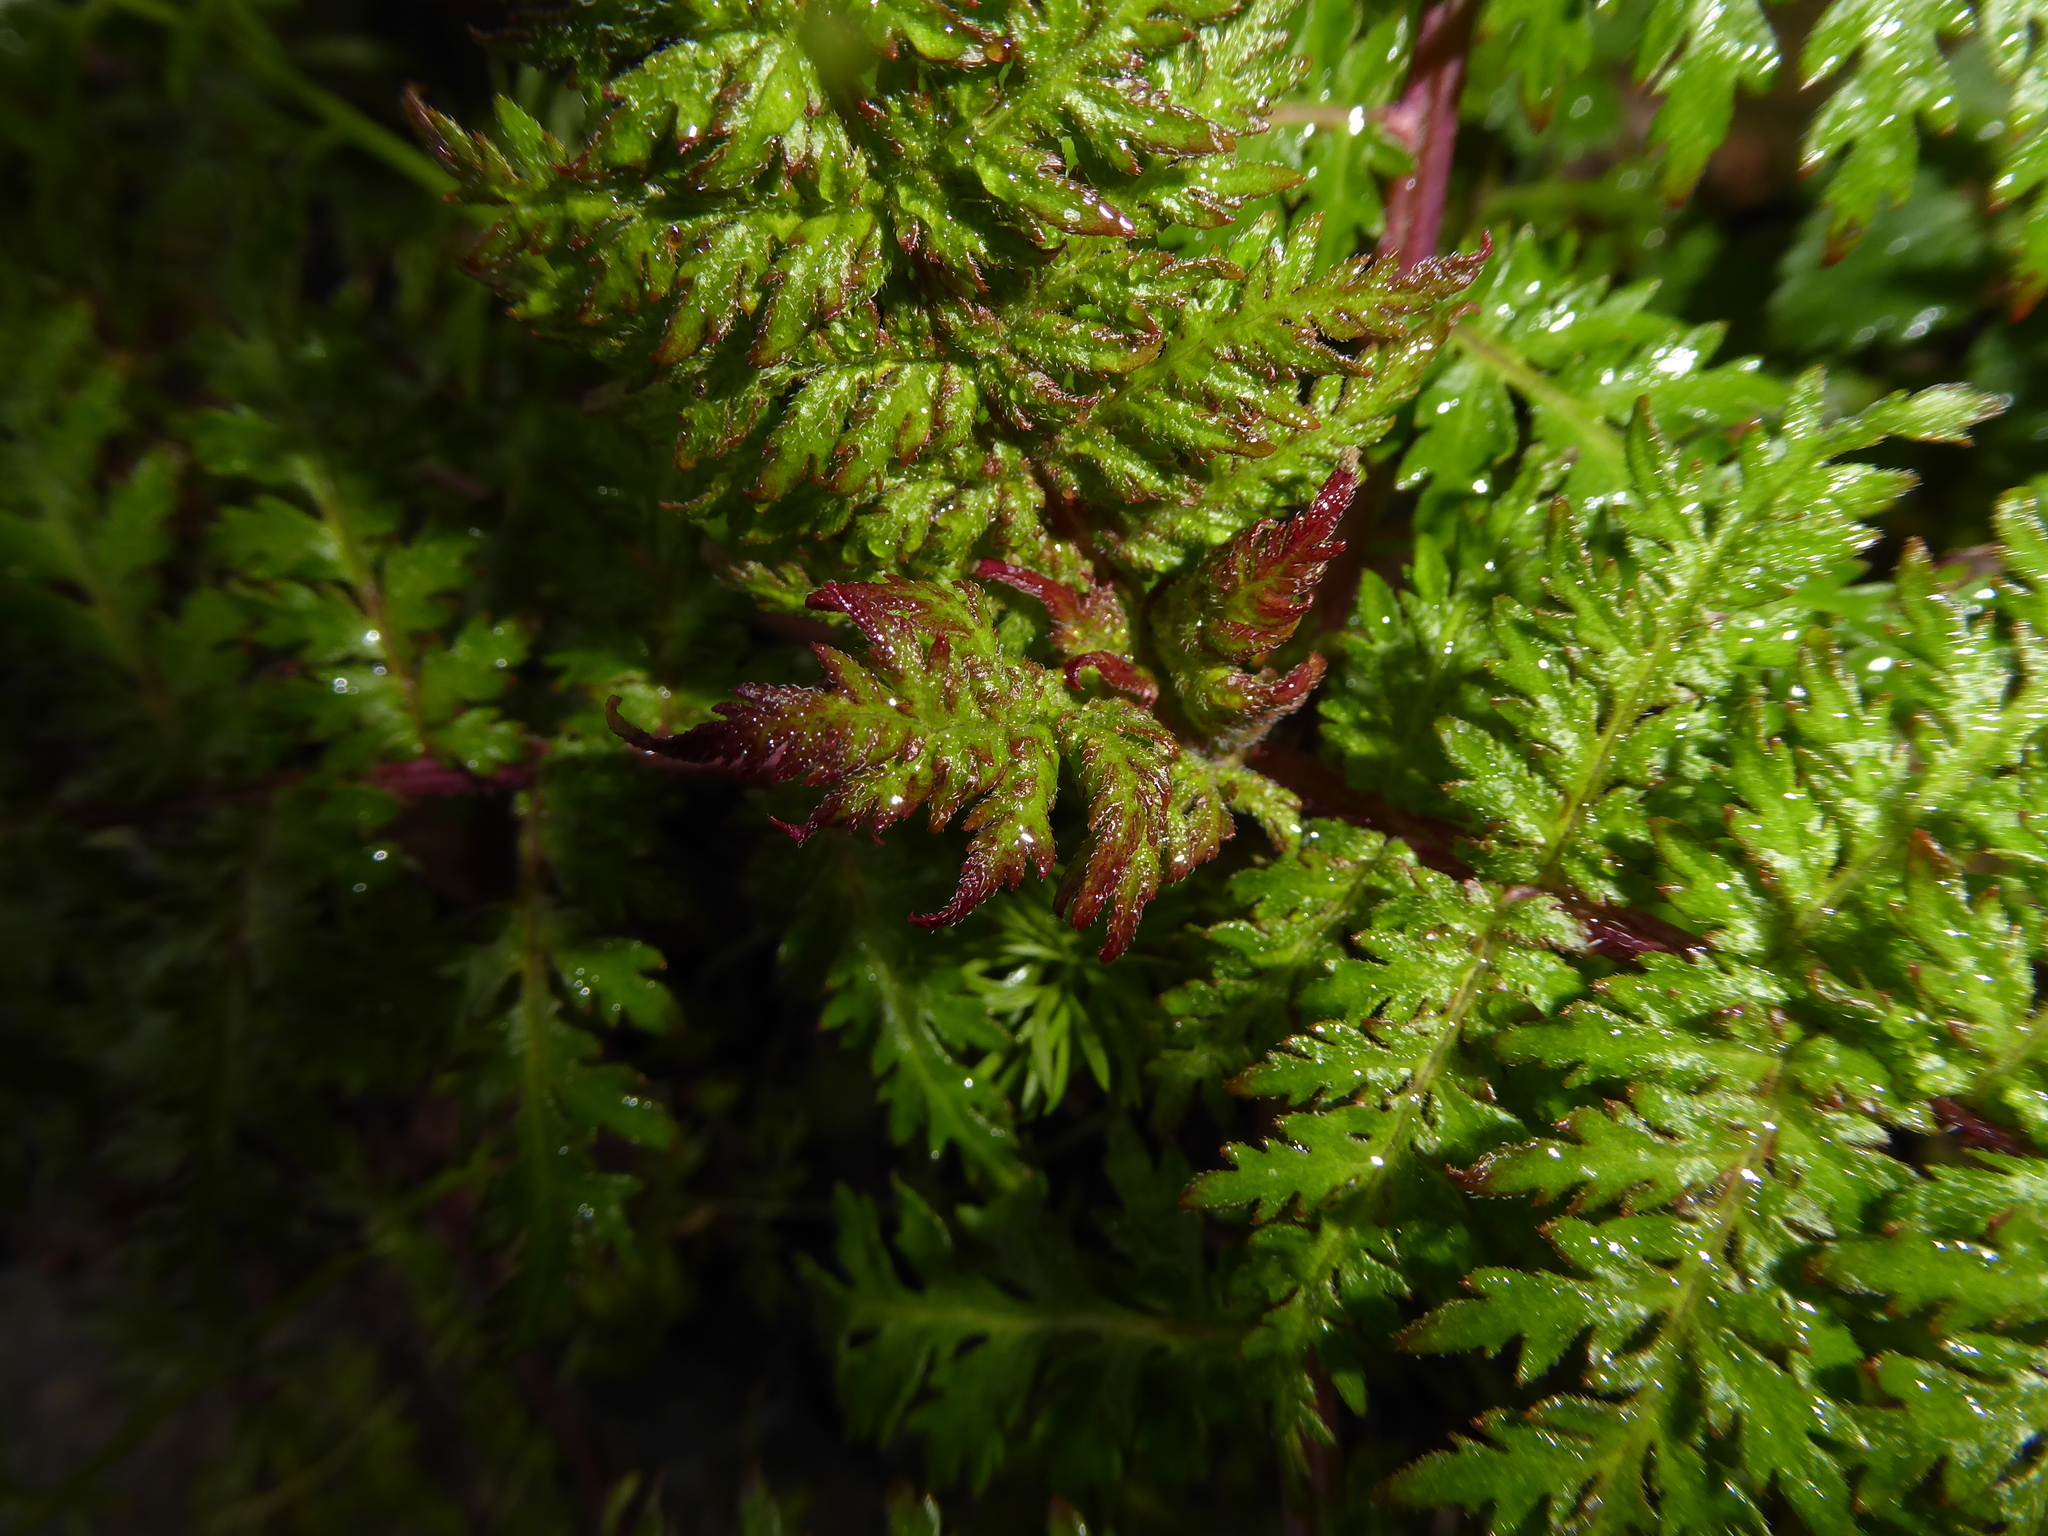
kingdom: Plantae
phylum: Tracheophyta
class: Magnoliopsida
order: Boraginales
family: Hydrophyllaceae
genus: Phacelia
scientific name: Phacelia tanacetifolia
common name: Phacelia
